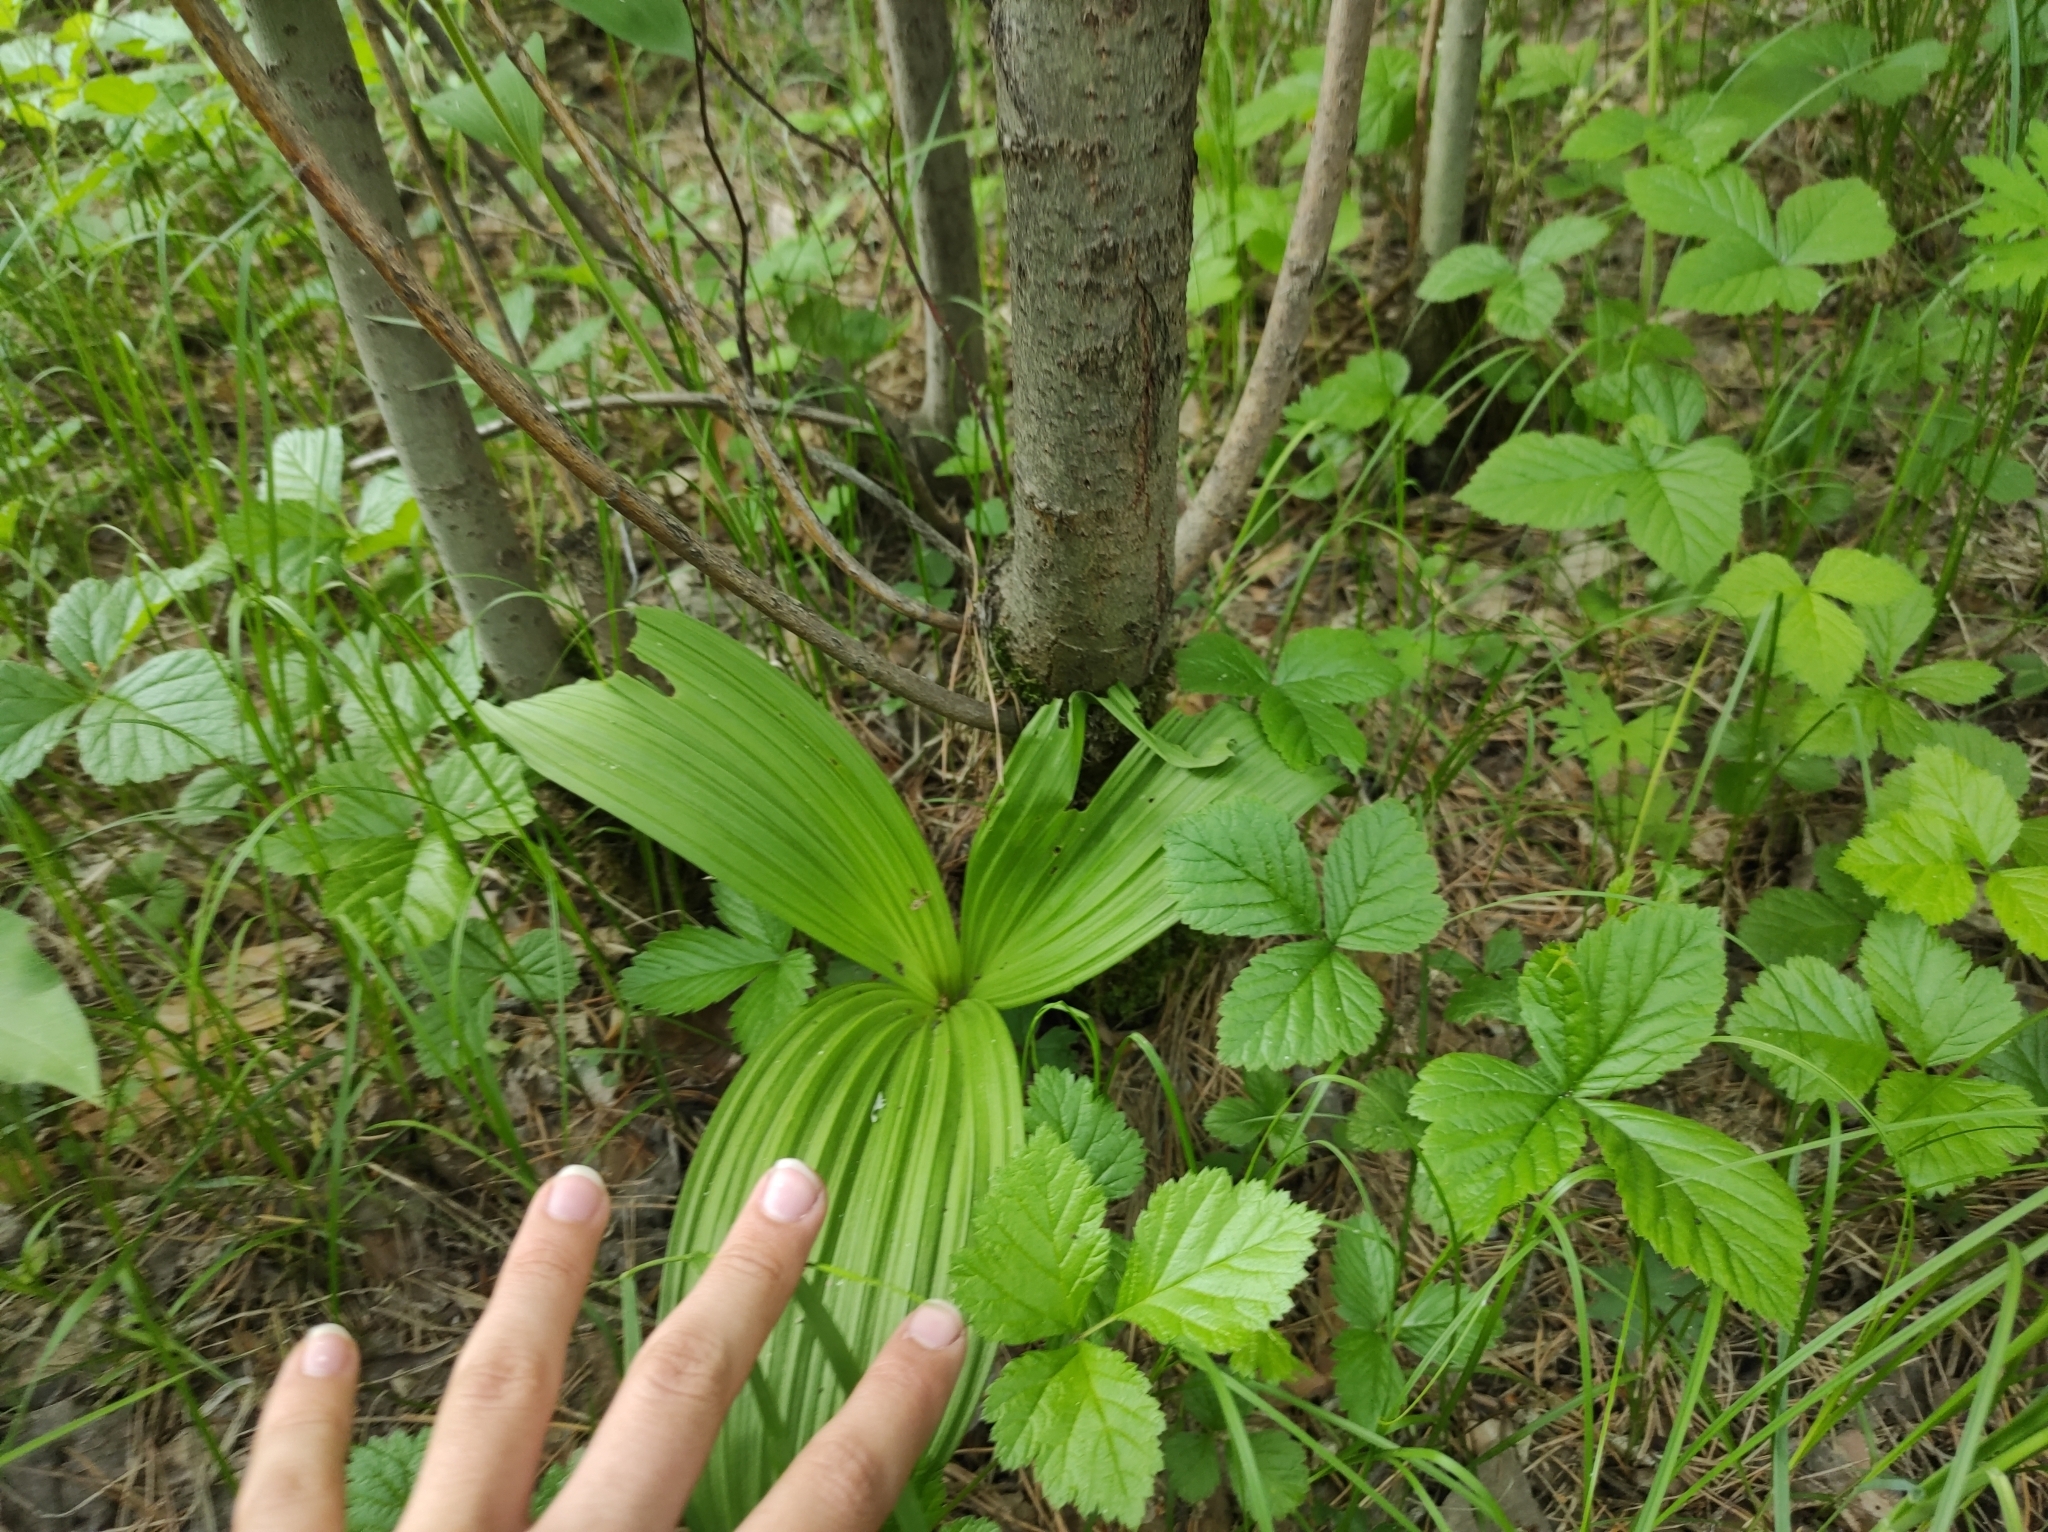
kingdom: Plantae
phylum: Tracheophyta
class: Magnoliopsida
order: Rosales
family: Rosaceae
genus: Rubus
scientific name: Rubus saxatilis
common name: Stone bramble
